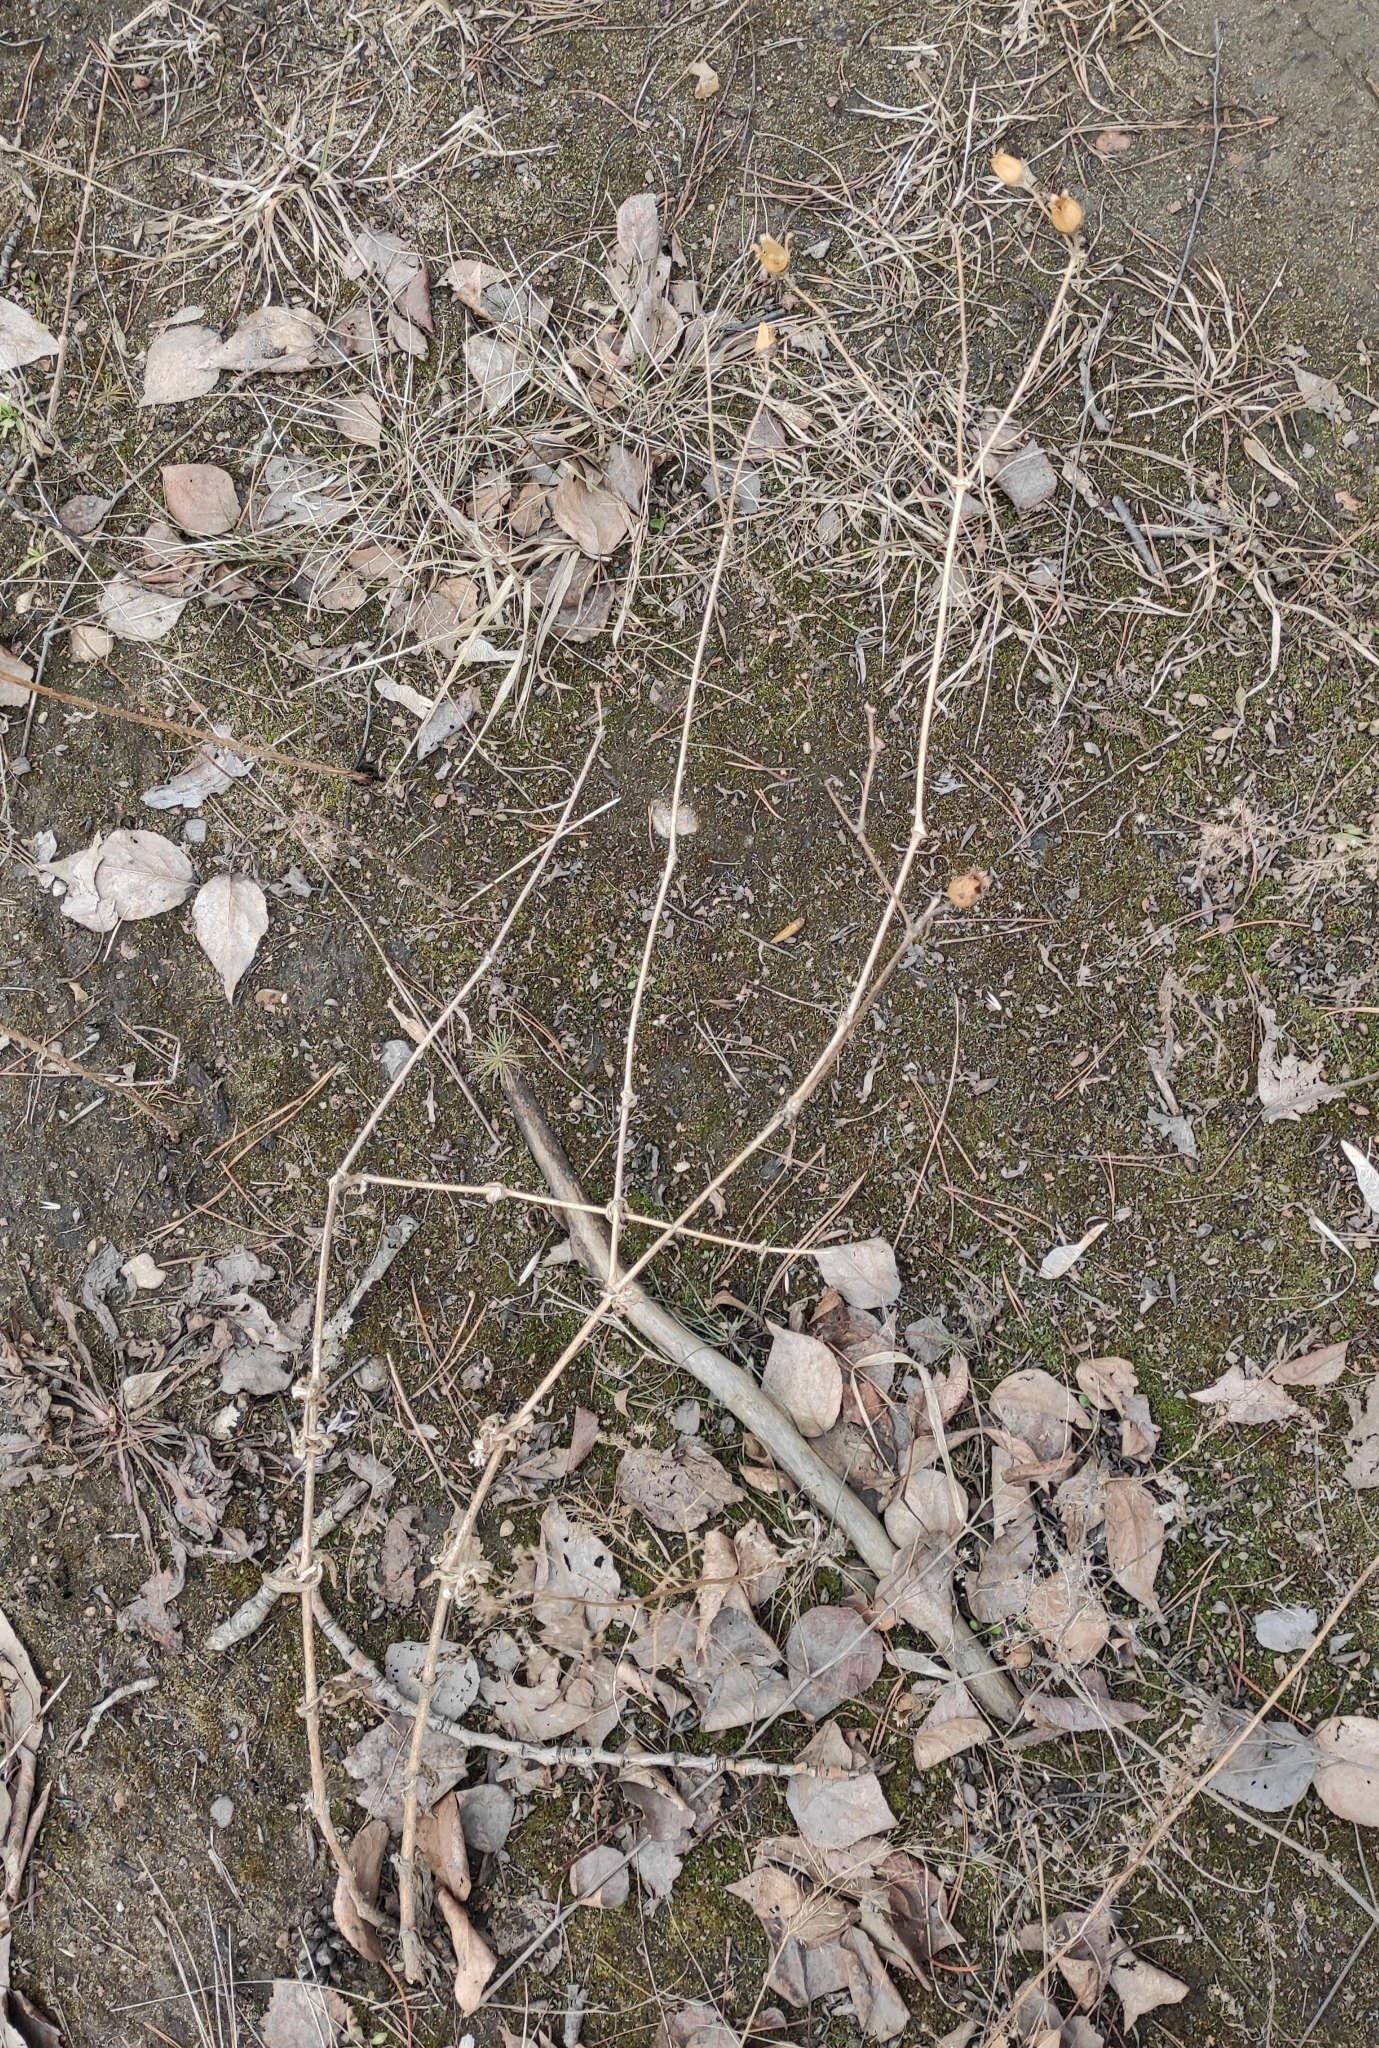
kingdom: Plantae
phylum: Tracheophyta
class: Magnoliopsida
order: Caryophyllales
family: Caryophyllaceae
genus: Silene
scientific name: Silene latifolia
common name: White campion
